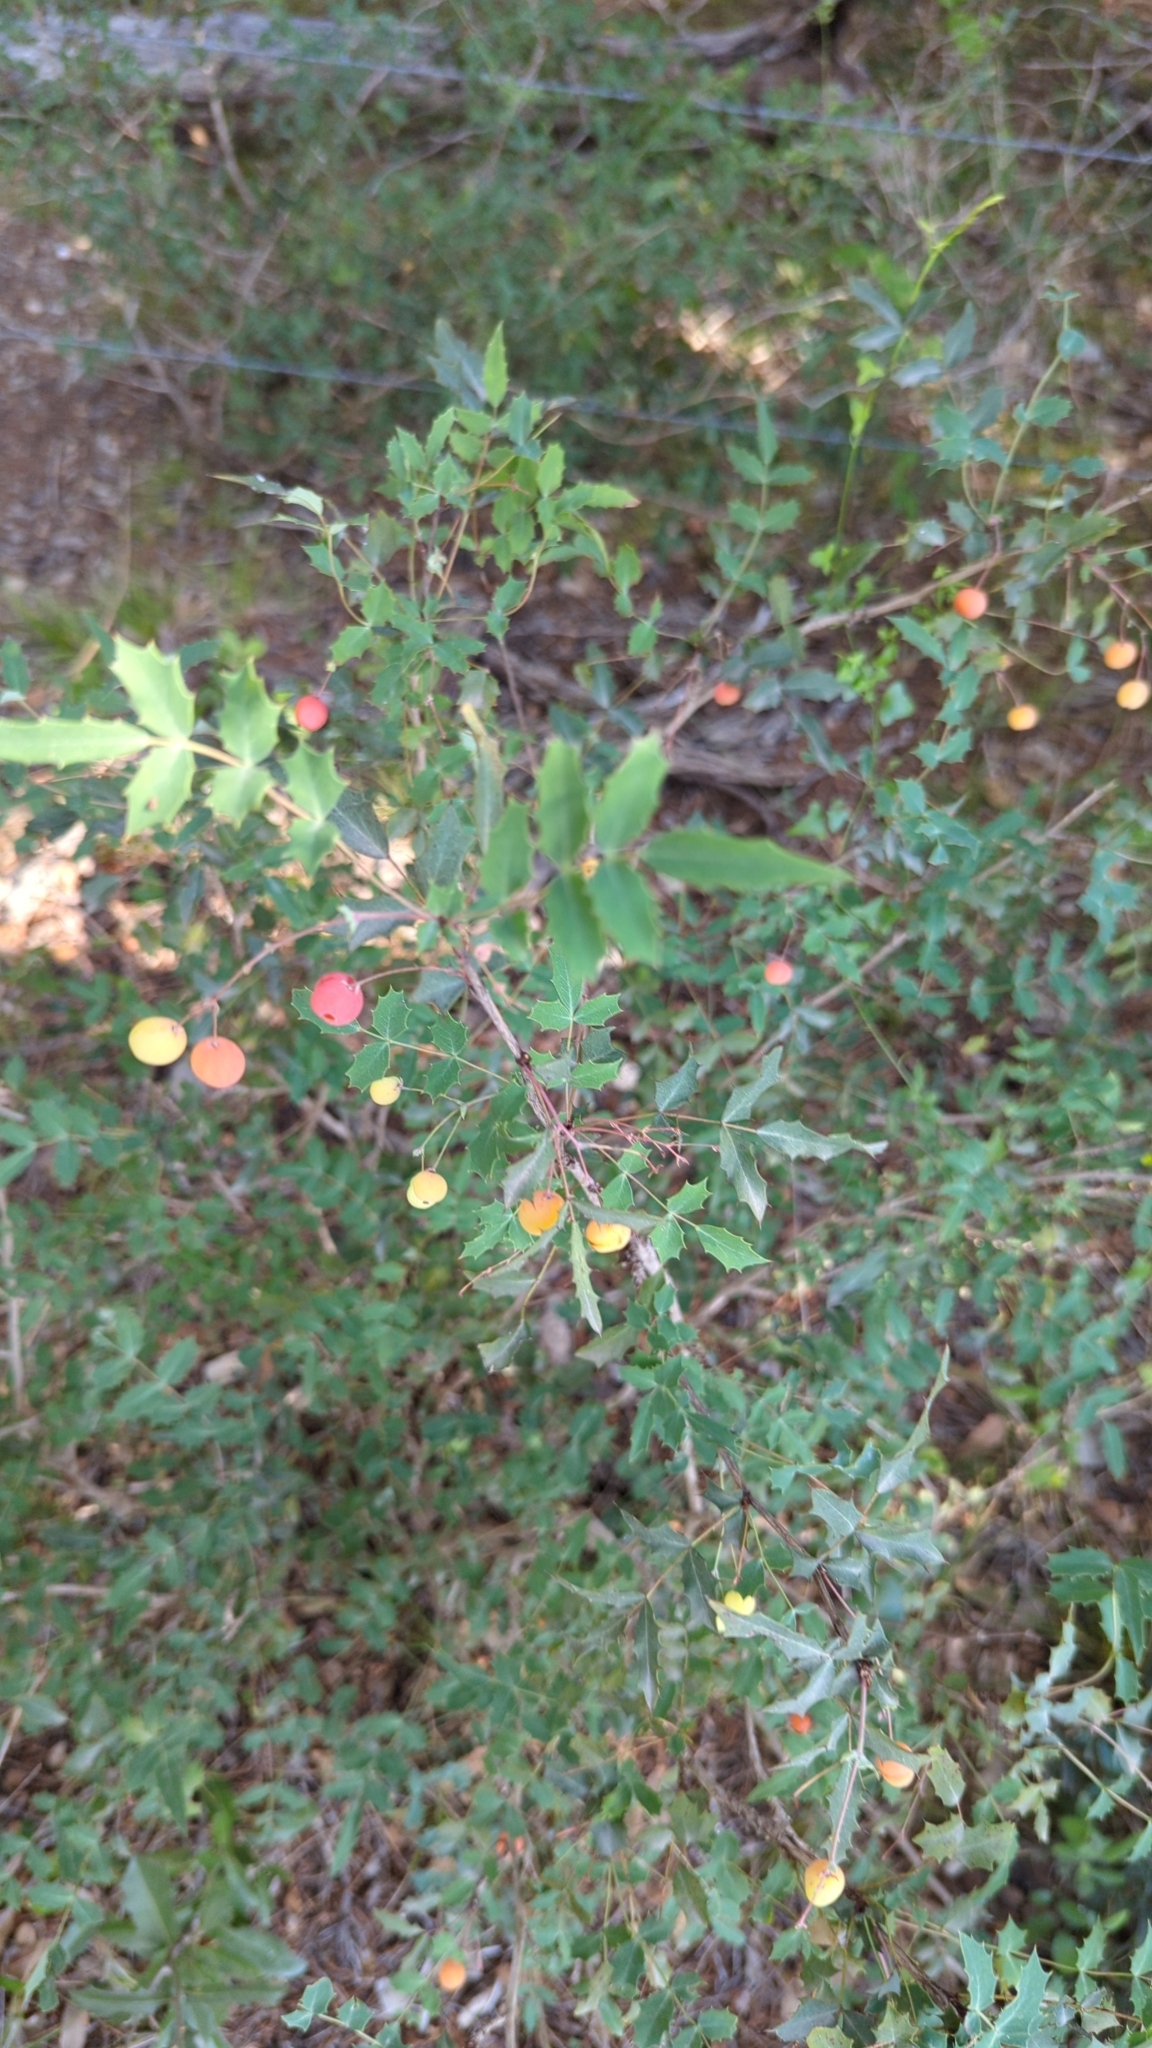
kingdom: Plantae
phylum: Tracheophyta
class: Magnoliopsida
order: Ranunculales
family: Berberidaceae
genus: Berberis
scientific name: Berberis swaseyi
